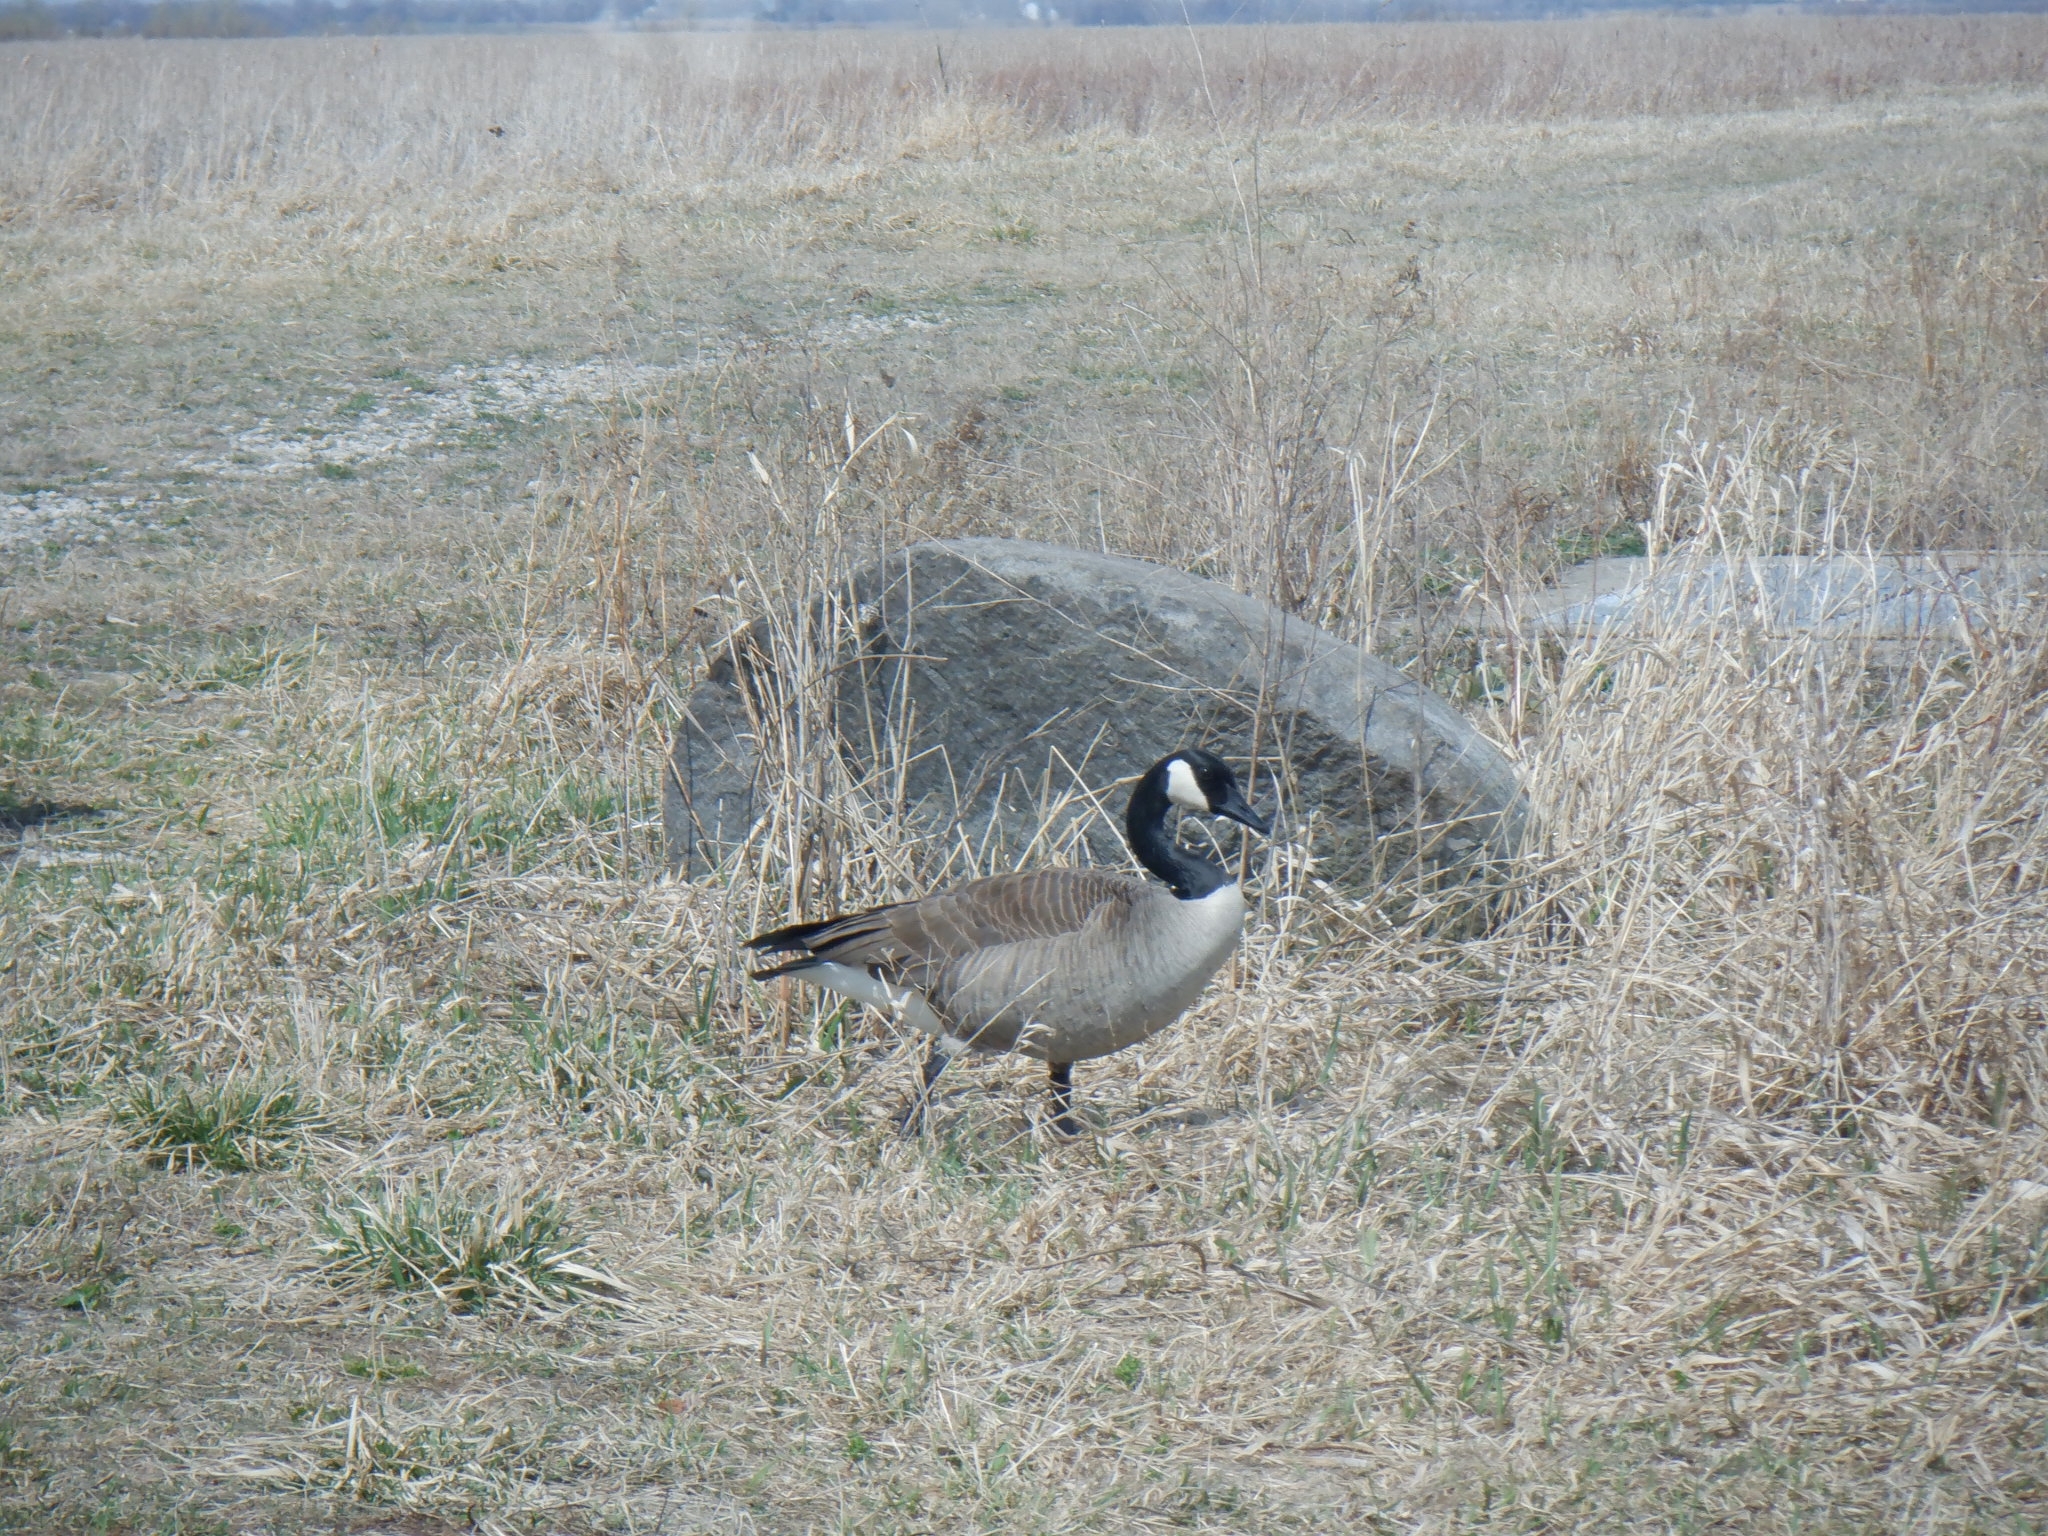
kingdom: Animalia
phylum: Chordata
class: Aves
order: Anseriformes
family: Anatidae
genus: Branta
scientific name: Branta canadensis
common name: Canada goose
